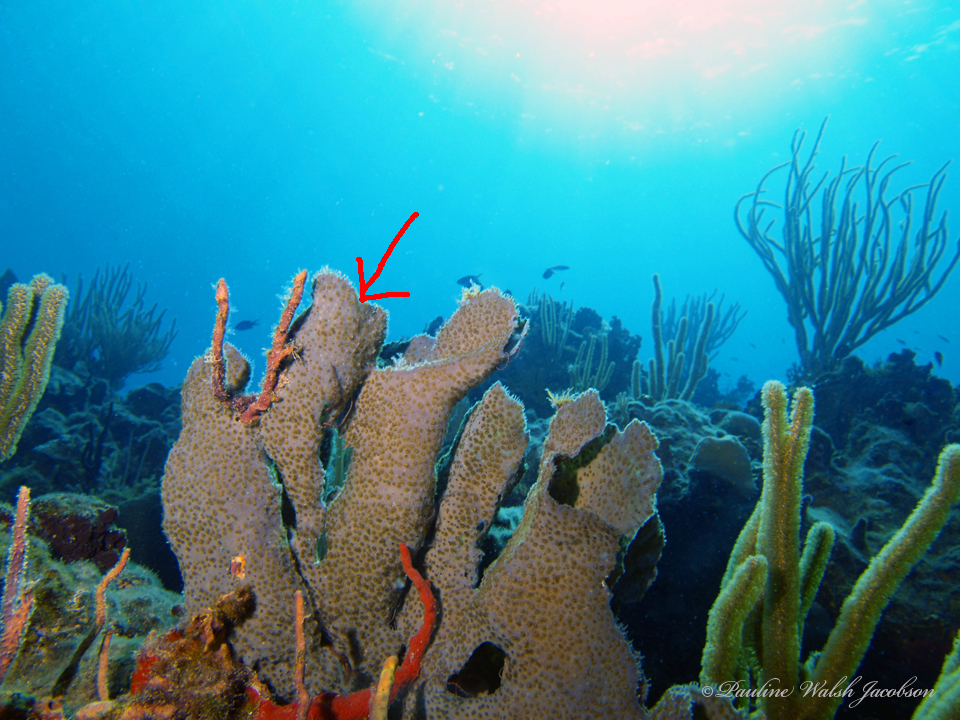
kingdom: Animalia
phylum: Porifera
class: Demospongiae
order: Haplosclerida
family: Callyspongiidae
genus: Callyspongia
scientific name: Callyspongia aculeata
